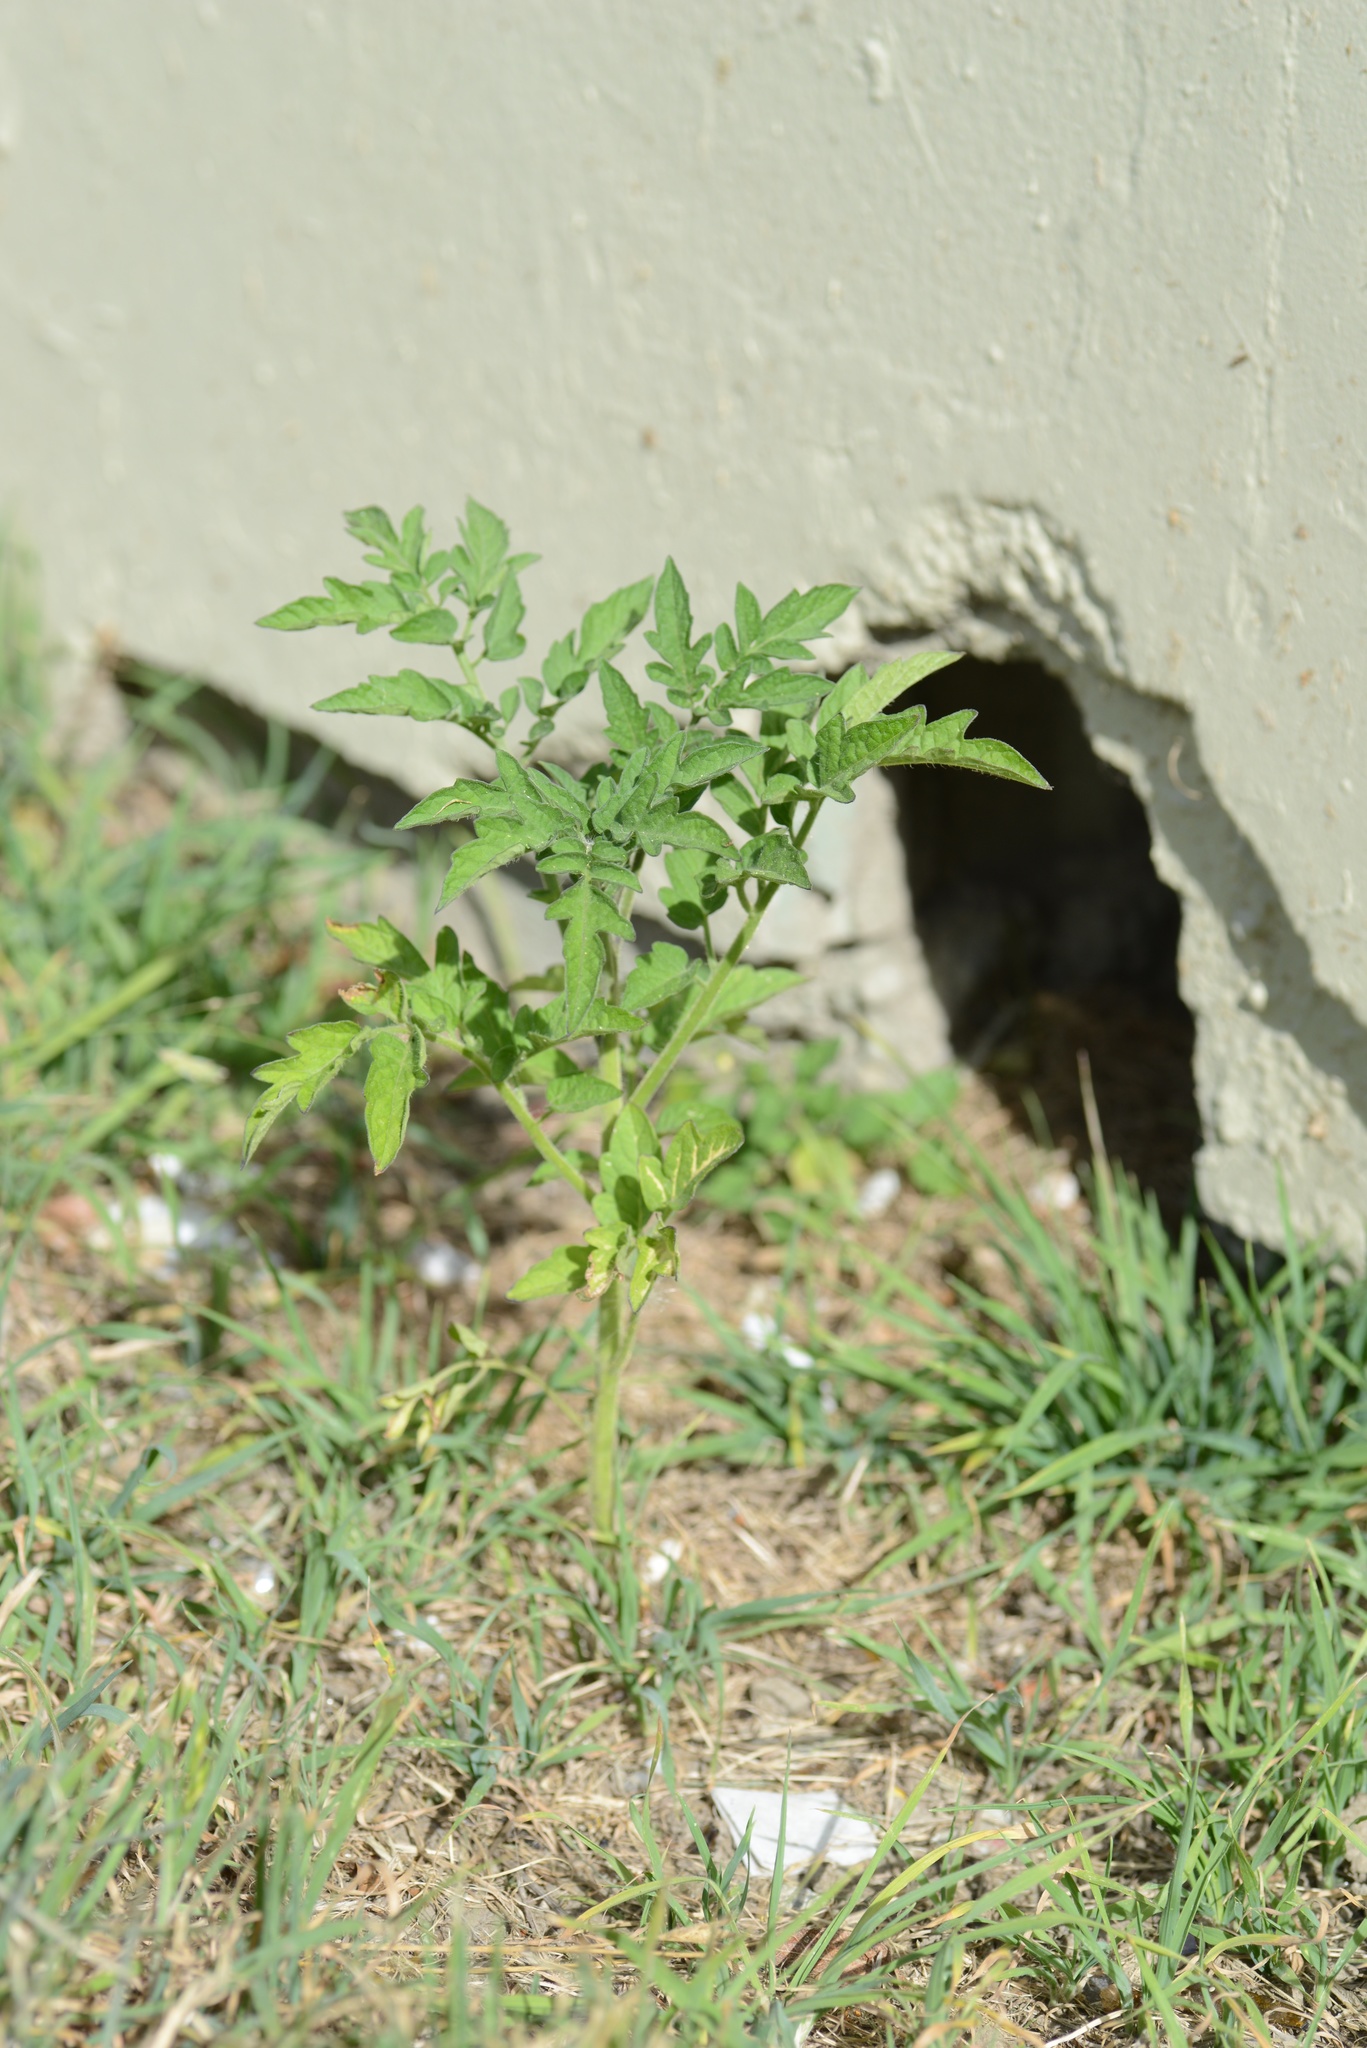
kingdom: Plantae
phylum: Tracheophyta
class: Magnoliopsida
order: Solanales
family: Solanaceae
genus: Solanum
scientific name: Solanum lycopersicum
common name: Garden tomato
